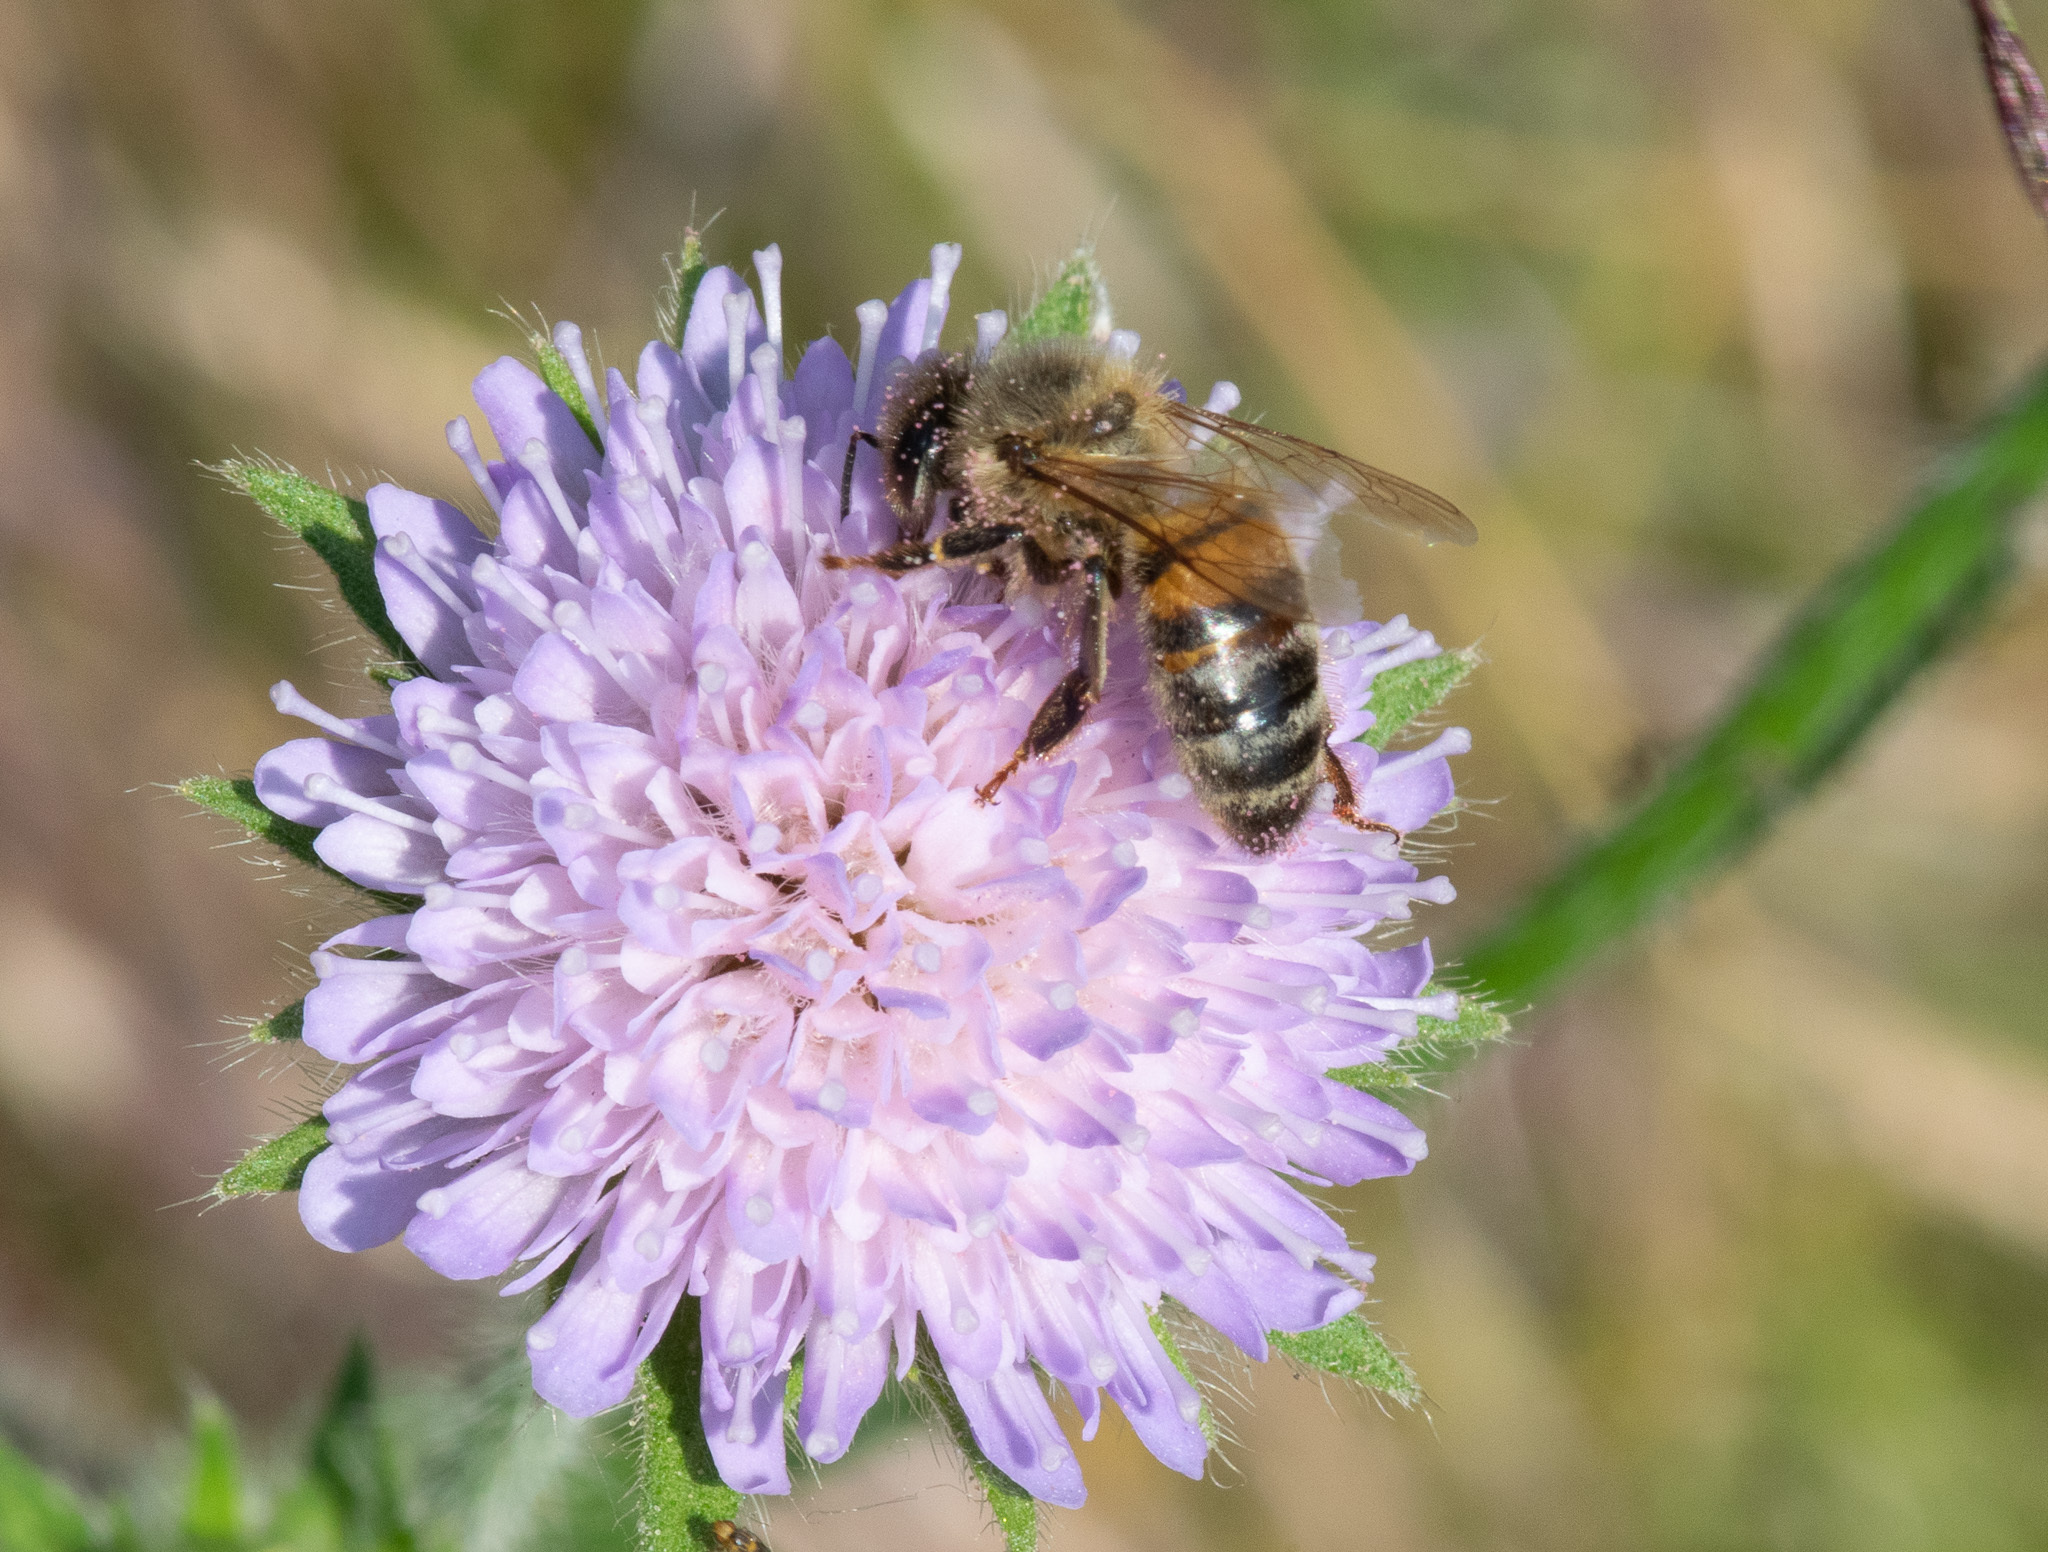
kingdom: Animalia
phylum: Arthropoda
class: Insecta
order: Hymenoptera
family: Apidae
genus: Apis
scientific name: Apis mellifera
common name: Honey bee
